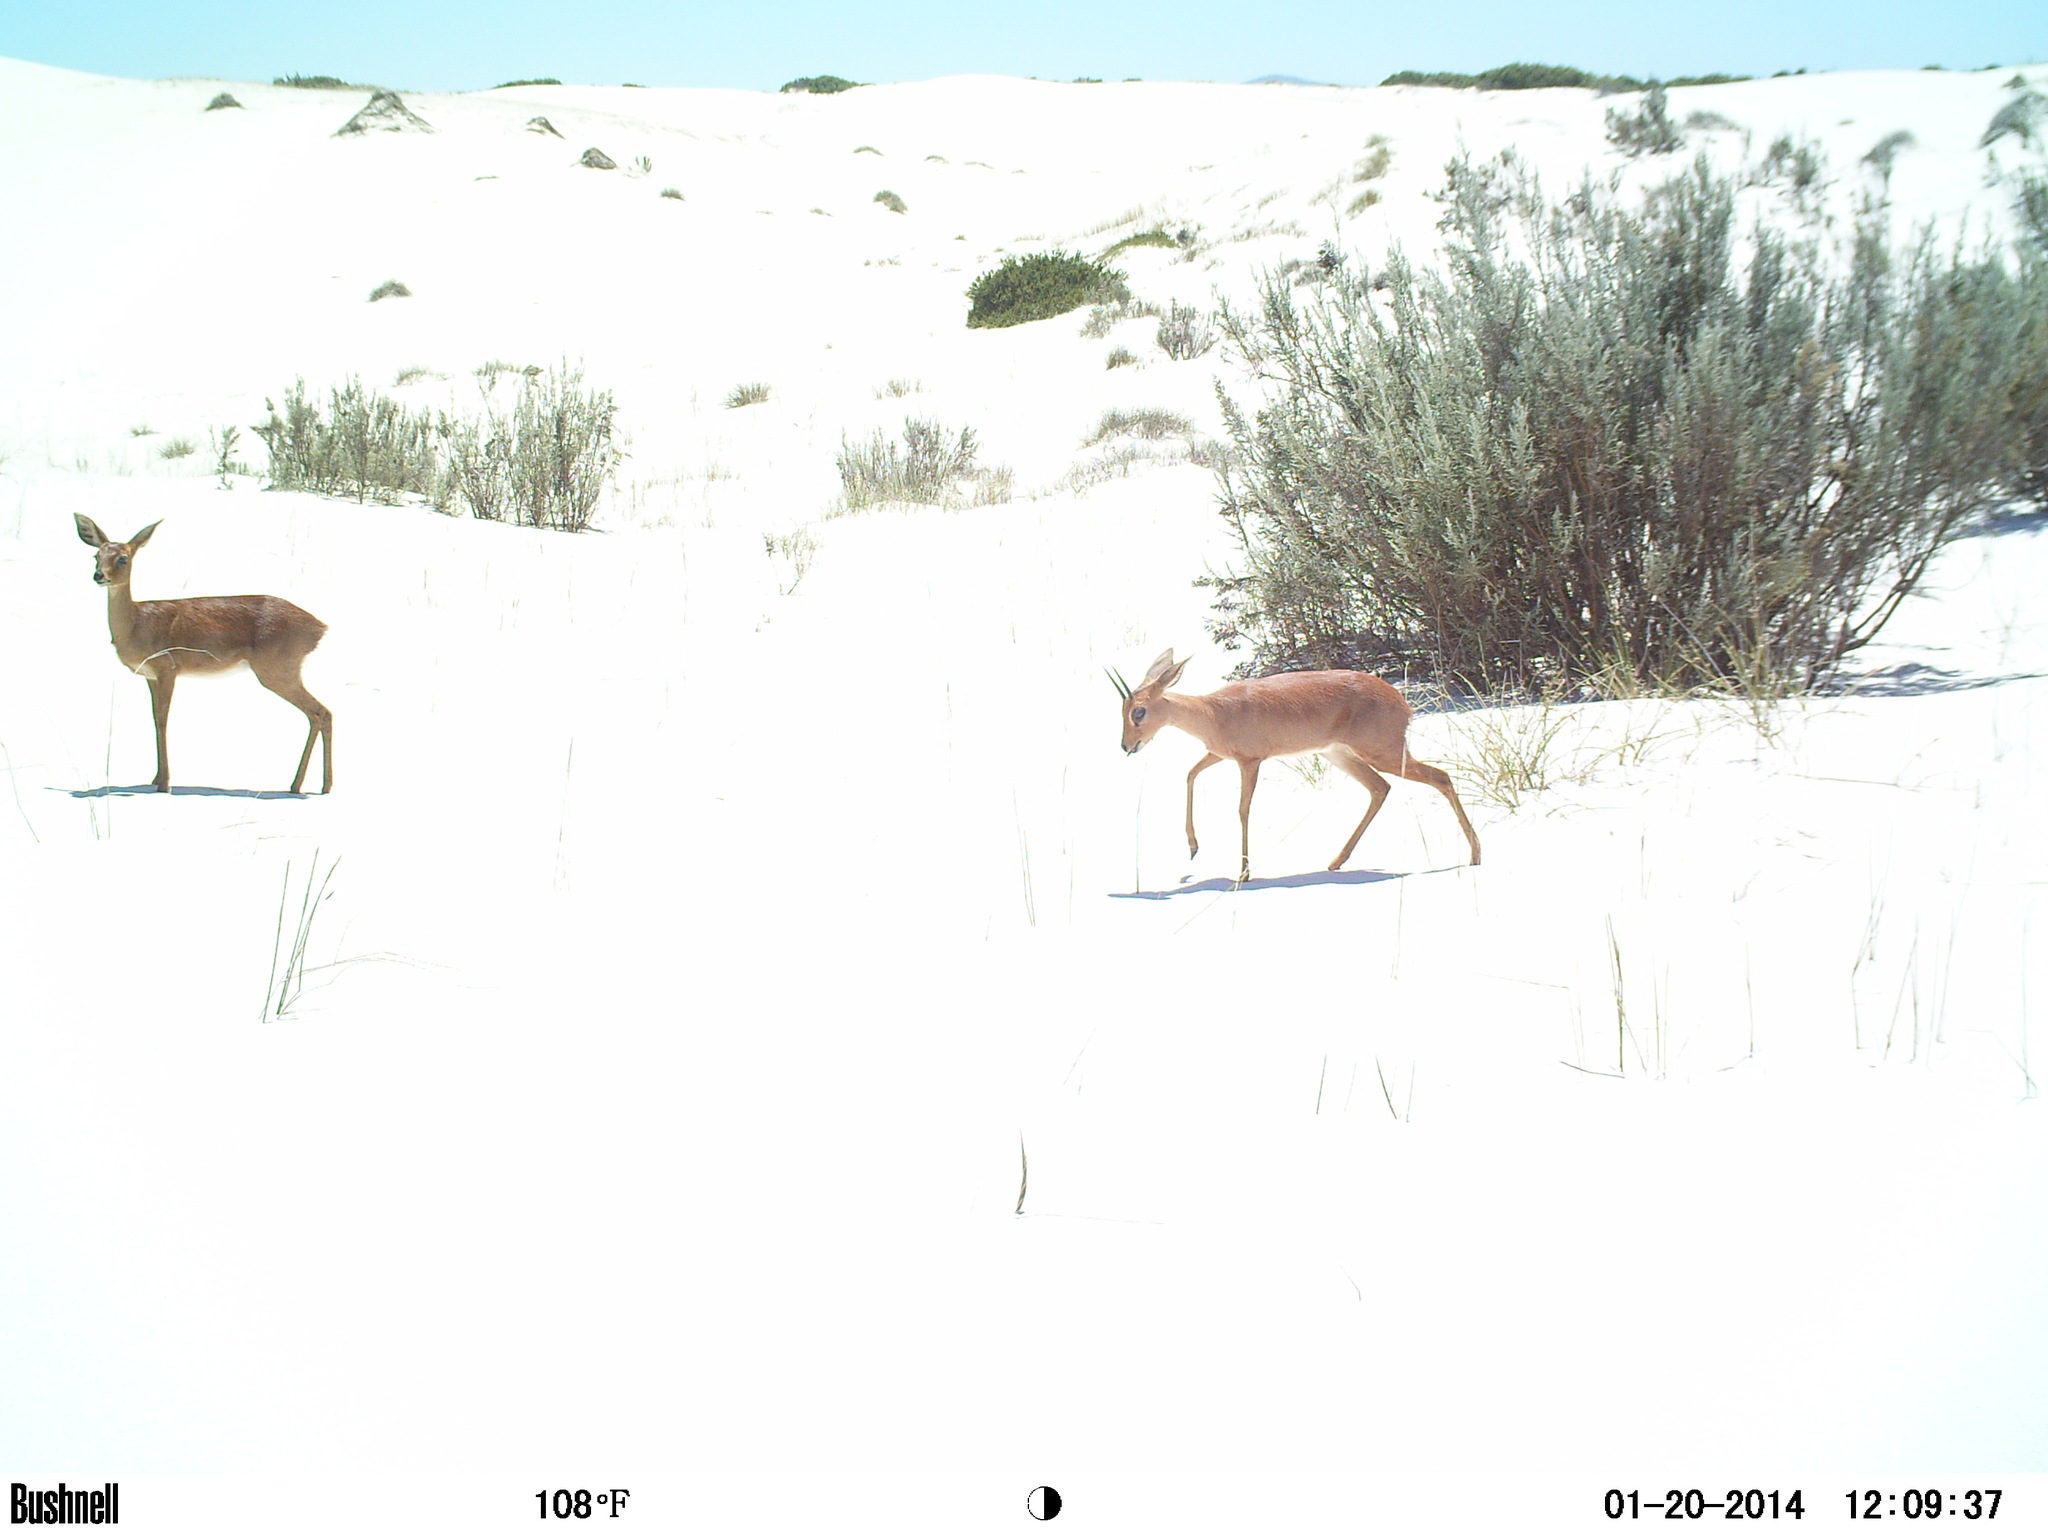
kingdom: Animalia
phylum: Chordata
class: Mammalia
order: Artiodactyla
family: Bovidae
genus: Raphicerus
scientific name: Raphicerus campestris
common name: Steenbok
